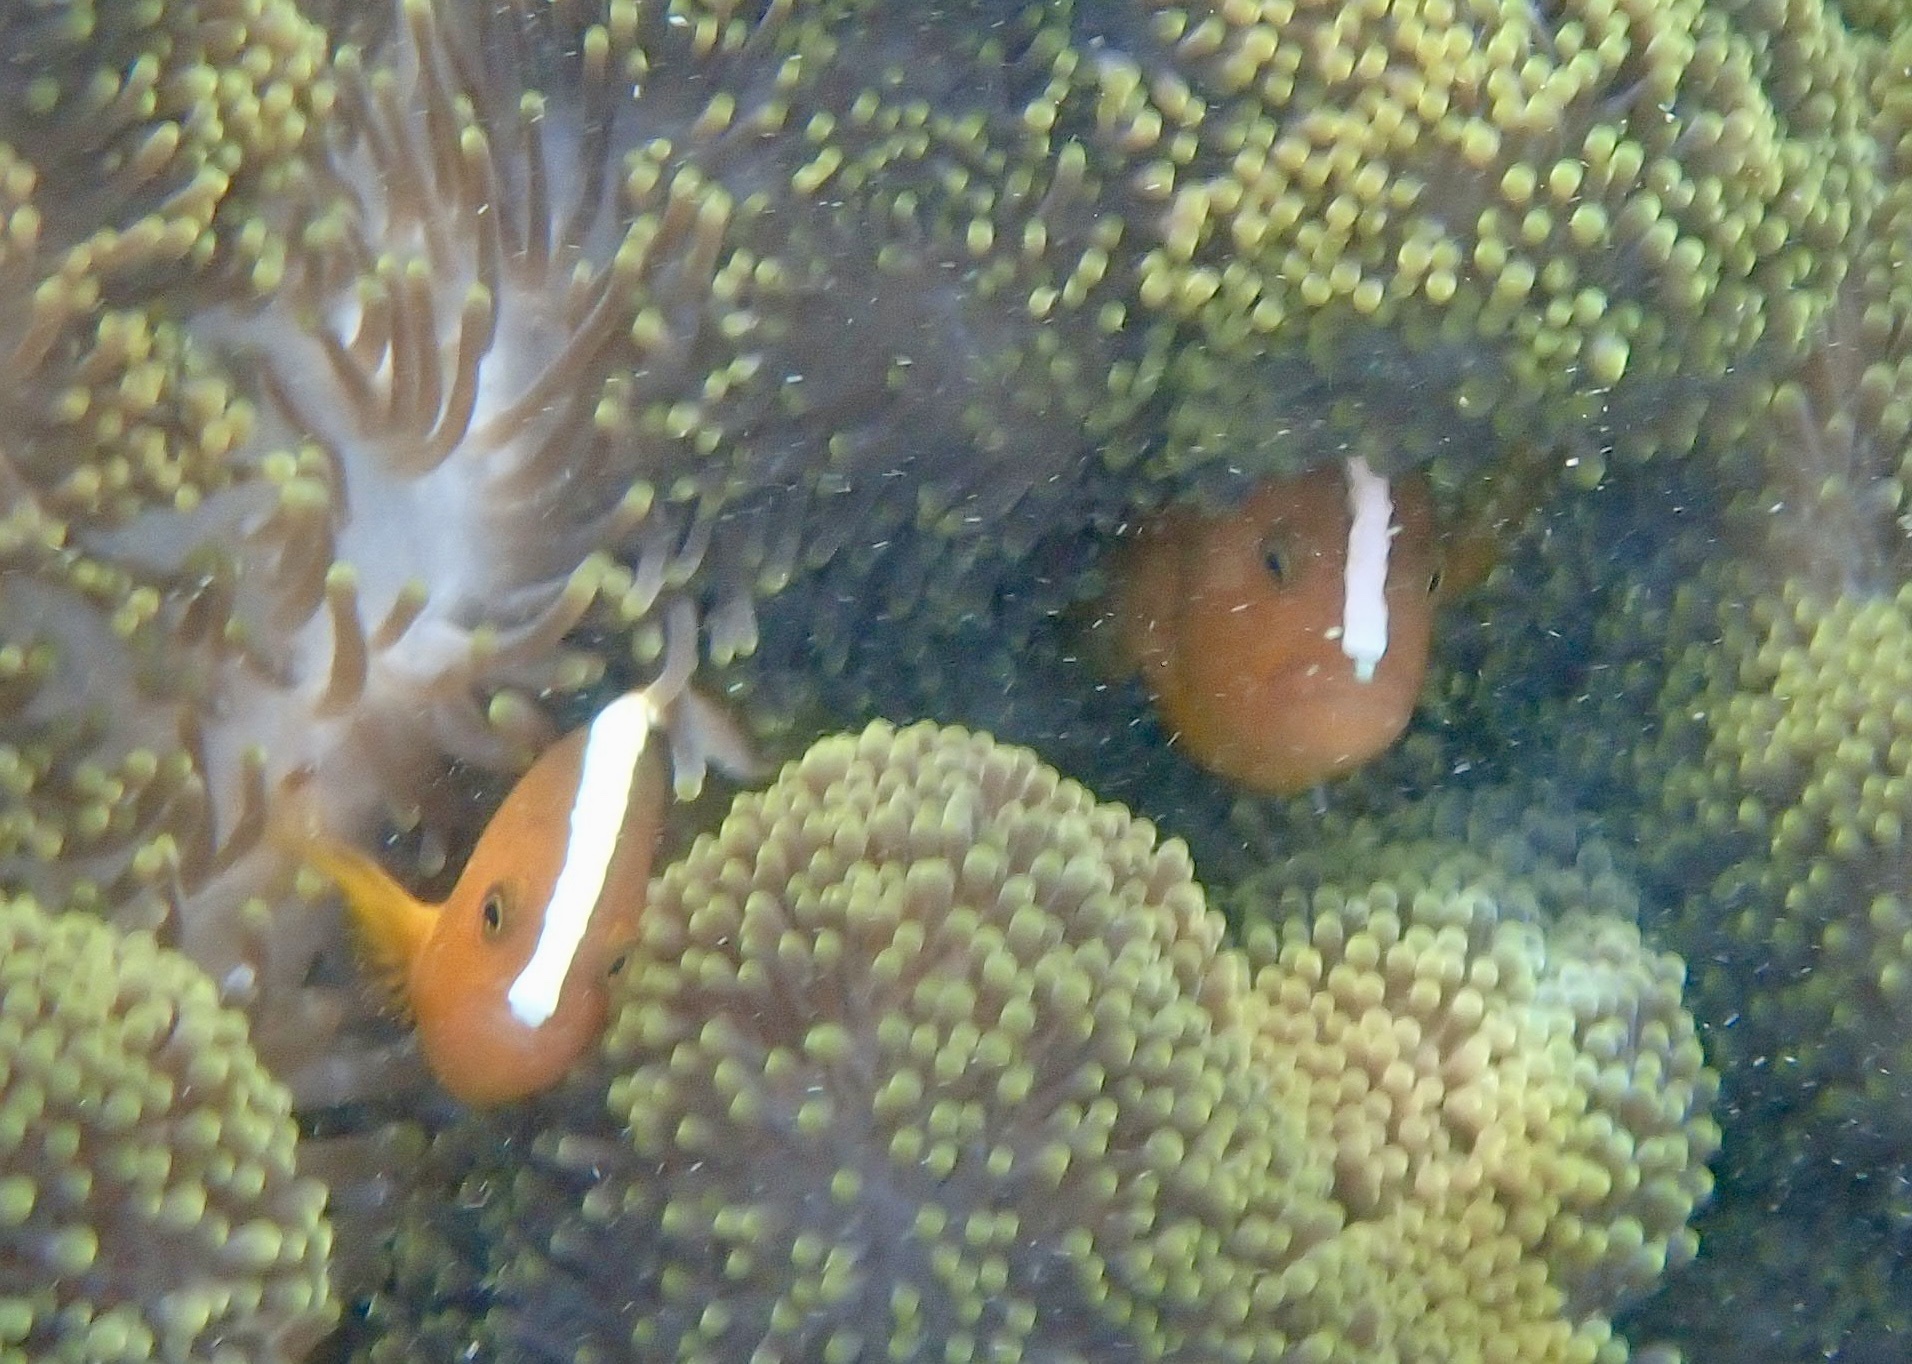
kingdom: Animalia
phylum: Chordata
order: Perciformes
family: Pomacentridae
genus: Amphiprion
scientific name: Amphiprion sandaracinos
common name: Orange anemonefish
